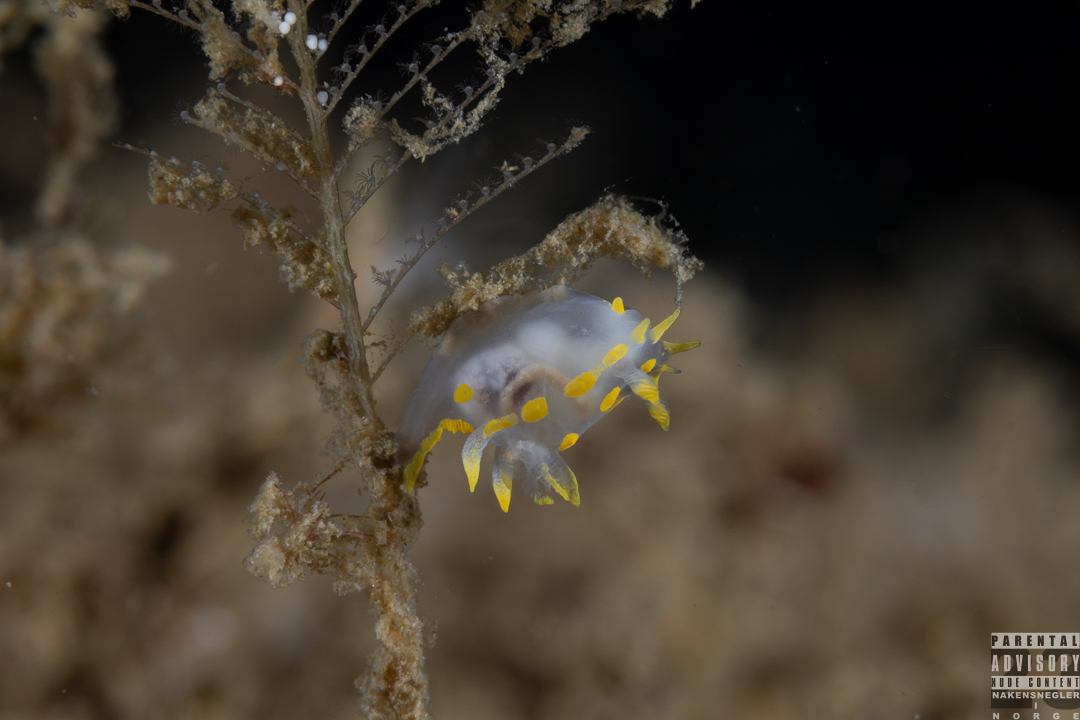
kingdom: Animalia
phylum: Mollusca
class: Gastropoda
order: Nudibranchia
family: Polyceridae
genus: Polycera
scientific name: Polycera quadrilineata
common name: Four-striped polycera
